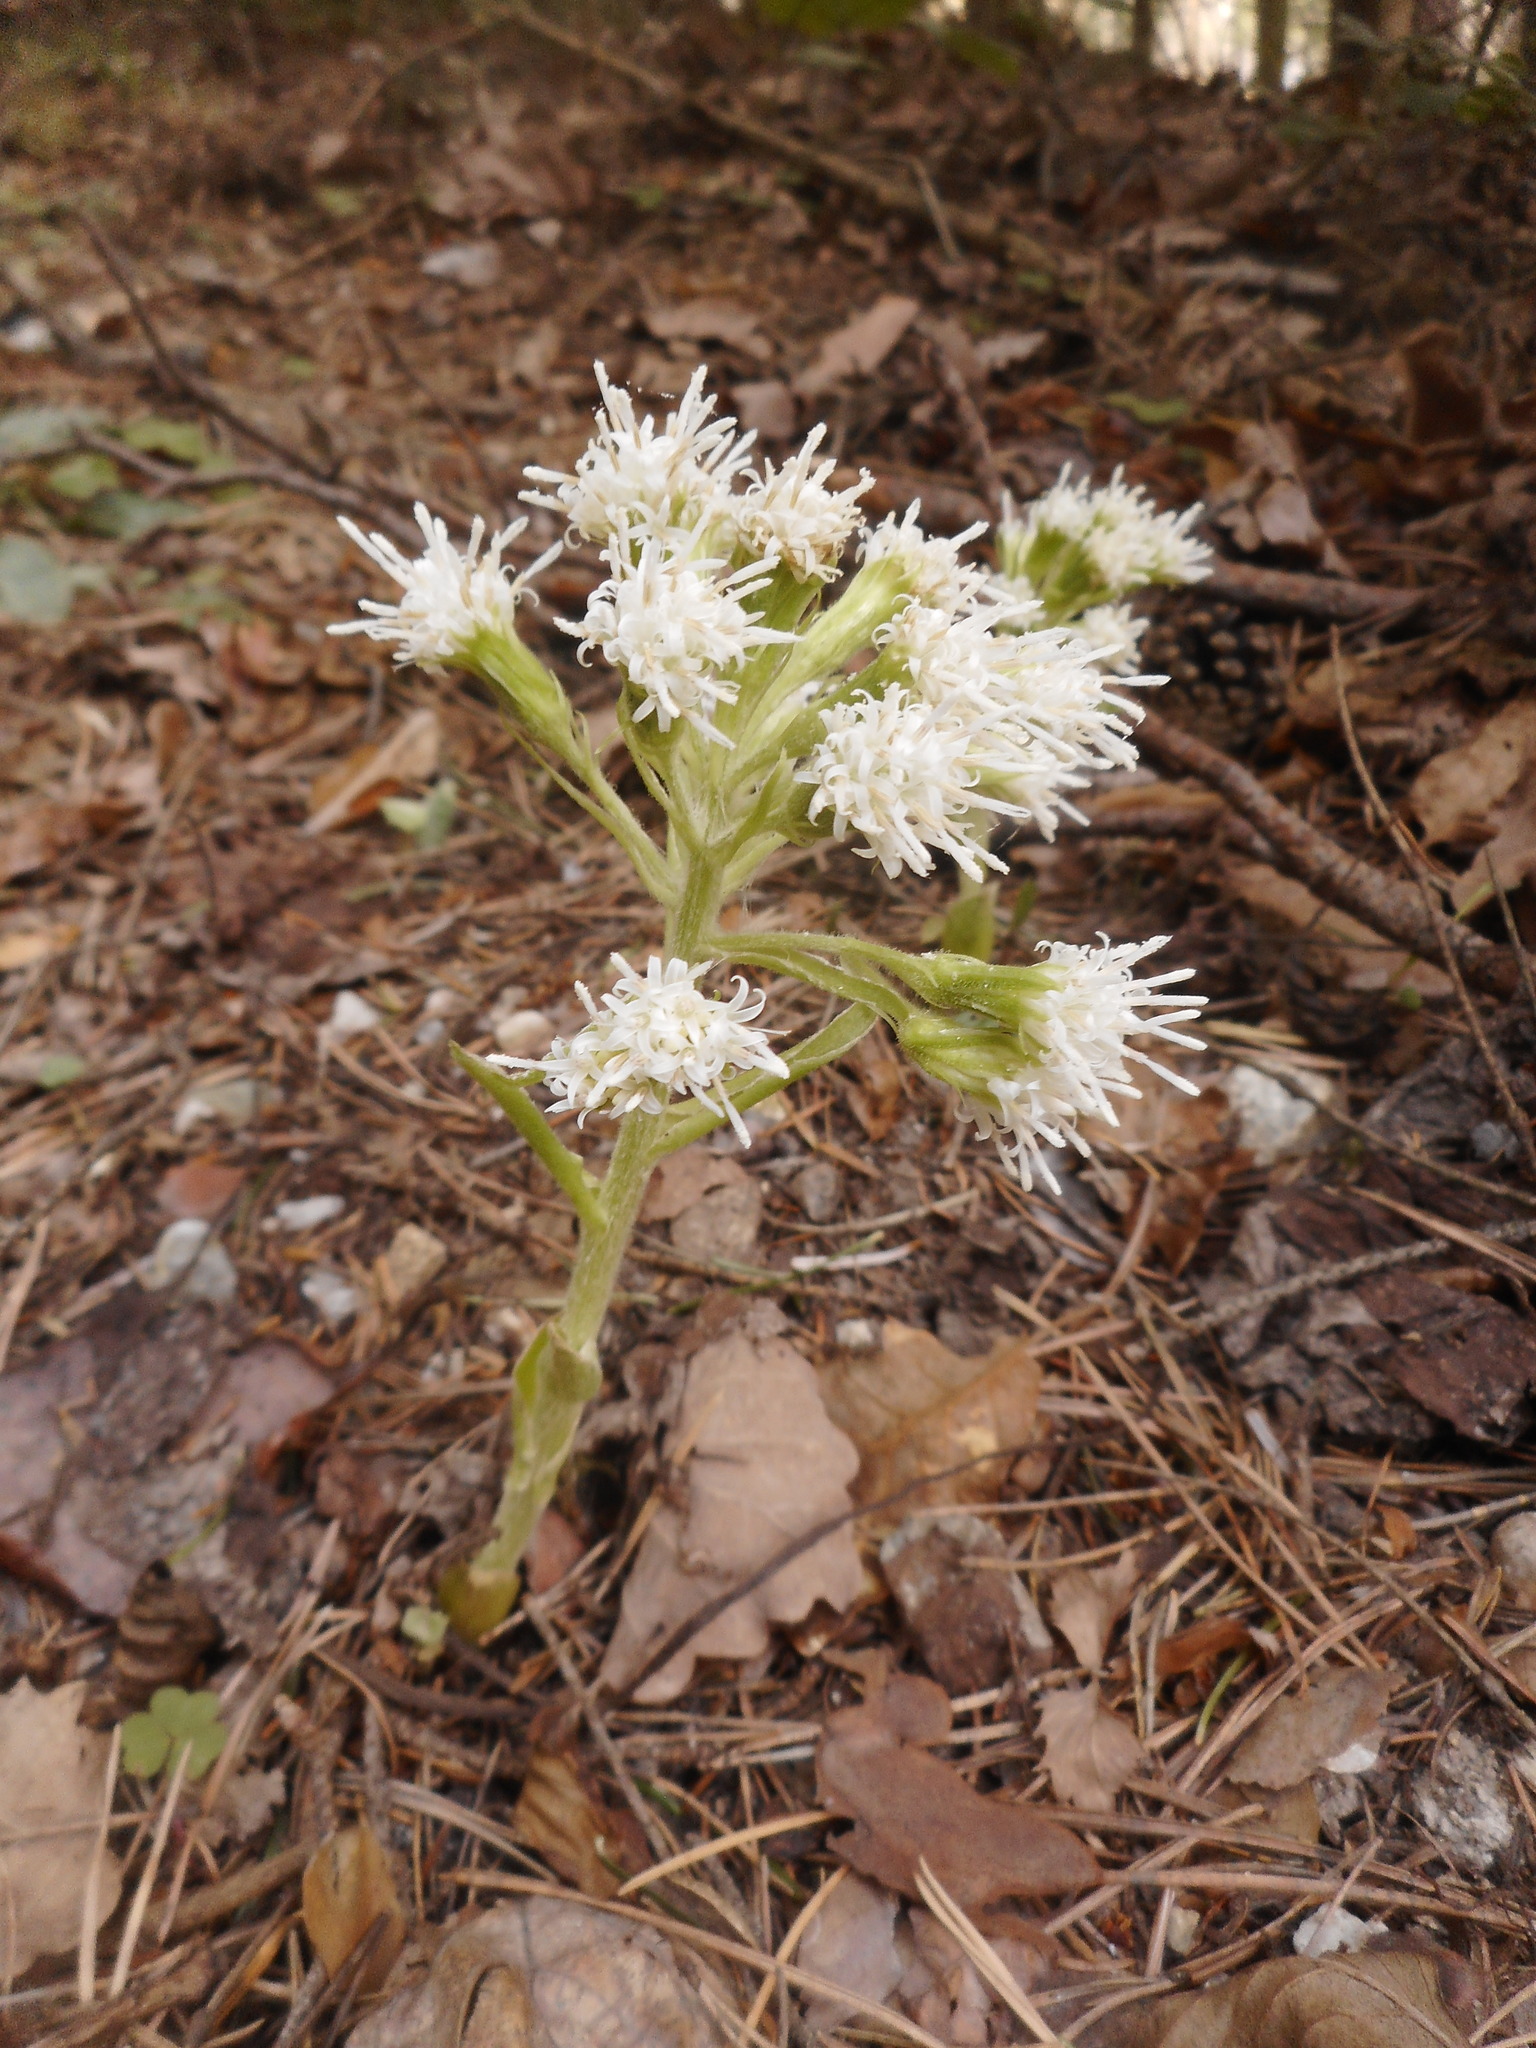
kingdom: Plantae
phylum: Tracheophyta
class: Magnoliopsida
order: Asterales
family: Asteraceae
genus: Petasites
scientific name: Petasites albus
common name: White butterbur
